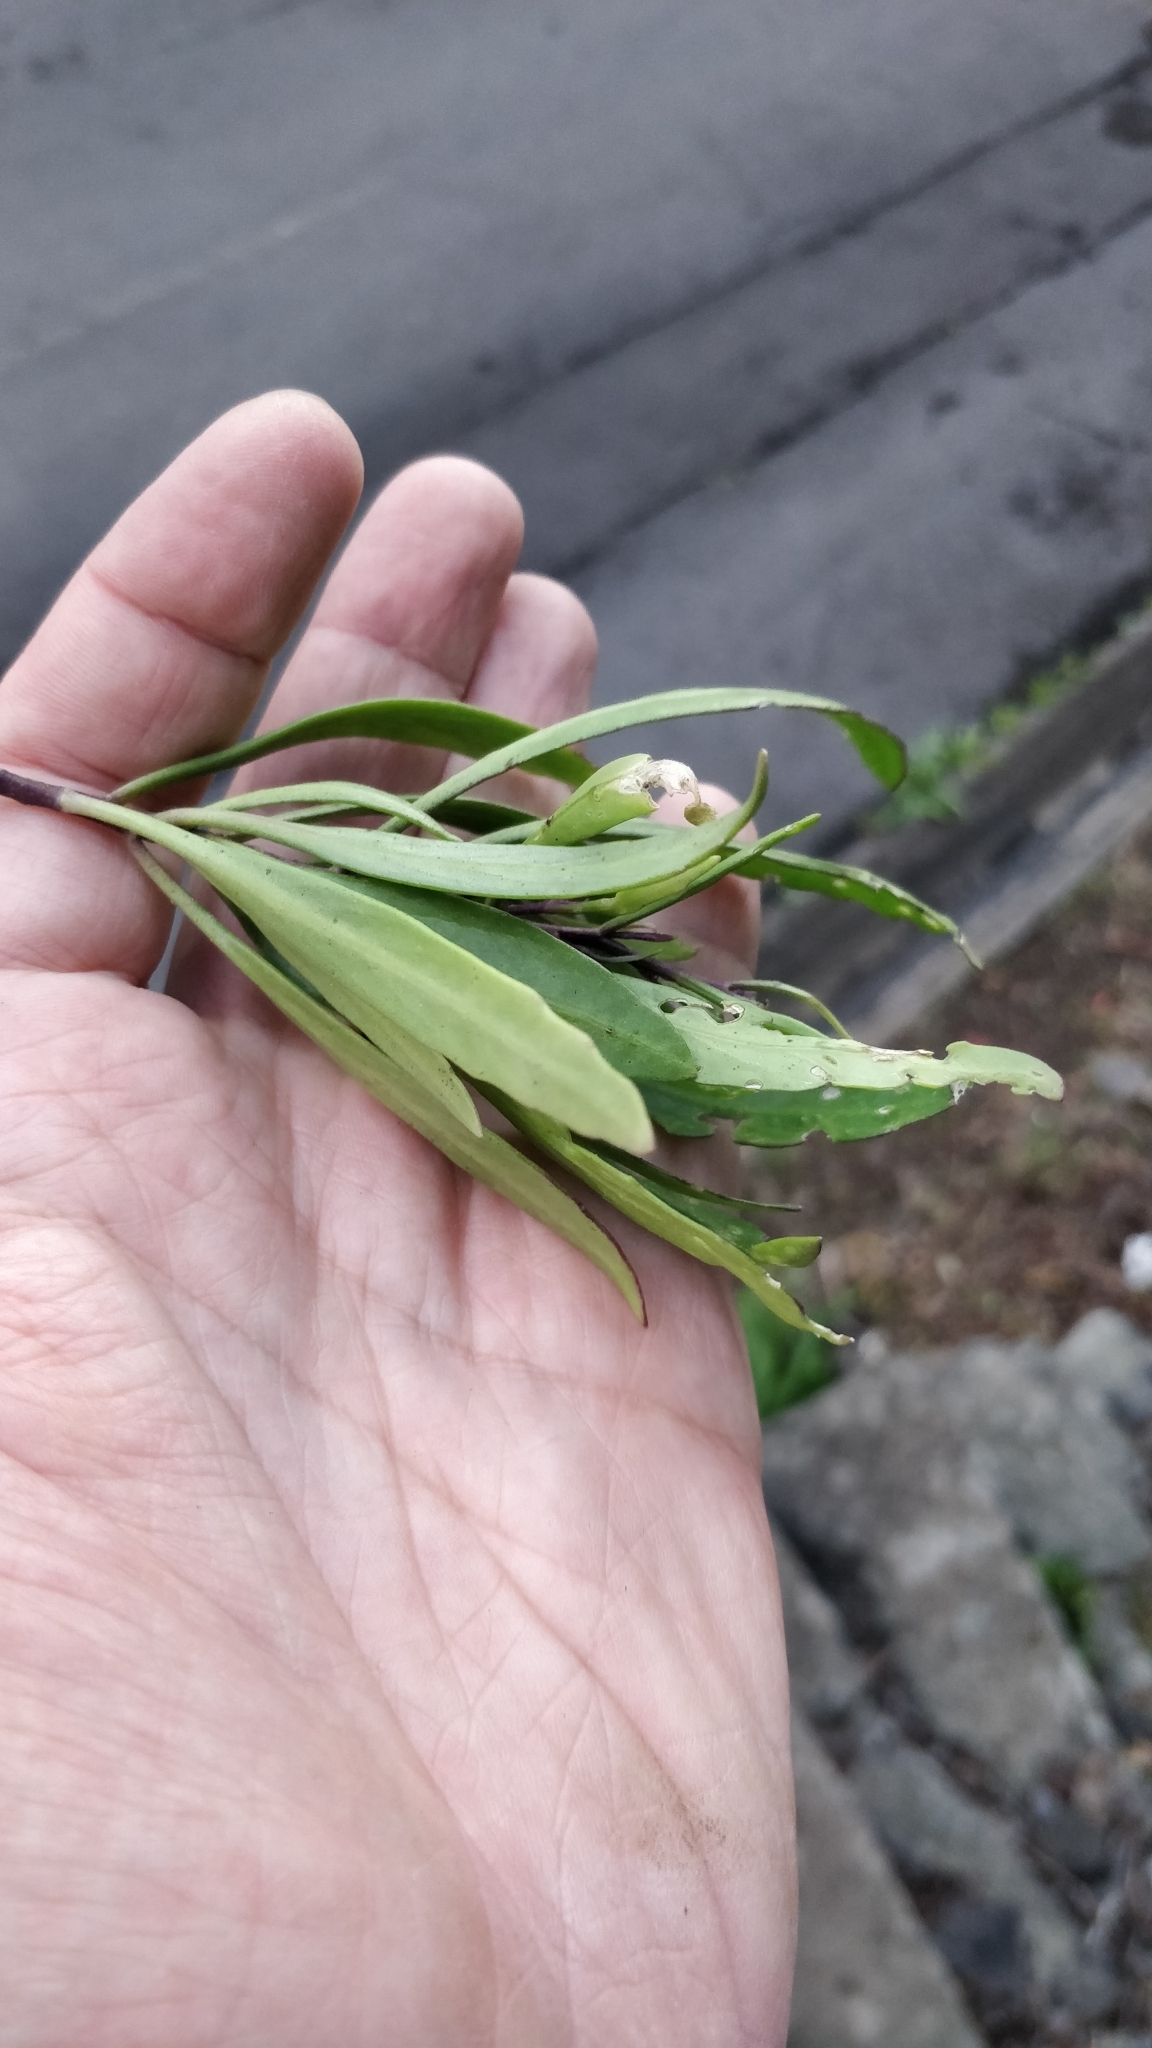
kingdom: Plantae
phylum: Tracheophyta
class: Magnoliopsida
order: Brassicales
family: Brassicaceae
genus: Sinapidendron
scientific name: Sinapidendron angustifolium
